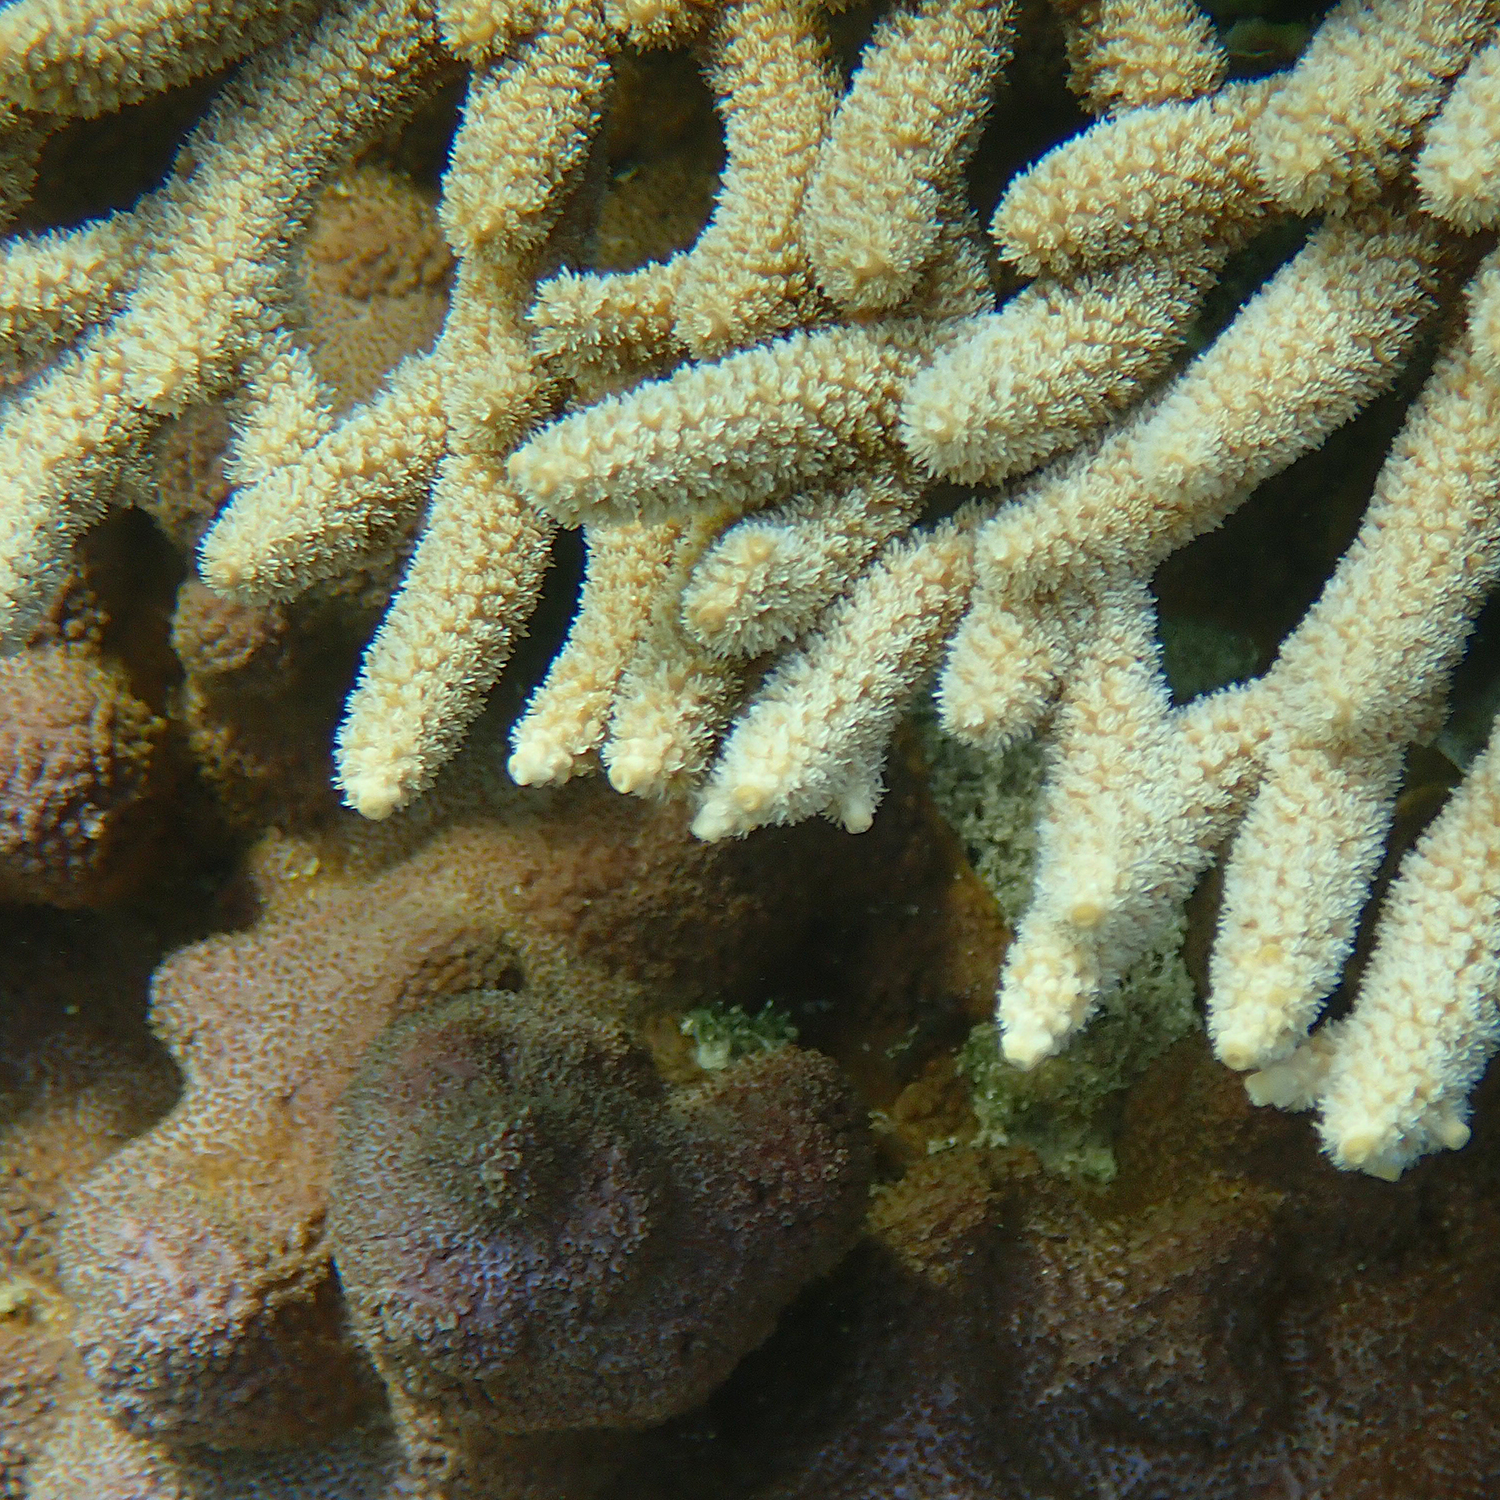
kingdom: Animalia
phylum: Cnidaria
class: Anthozoa
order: Scleractinia
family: Acroporidae
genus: Acropora
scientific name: Acropora solitaryensis
